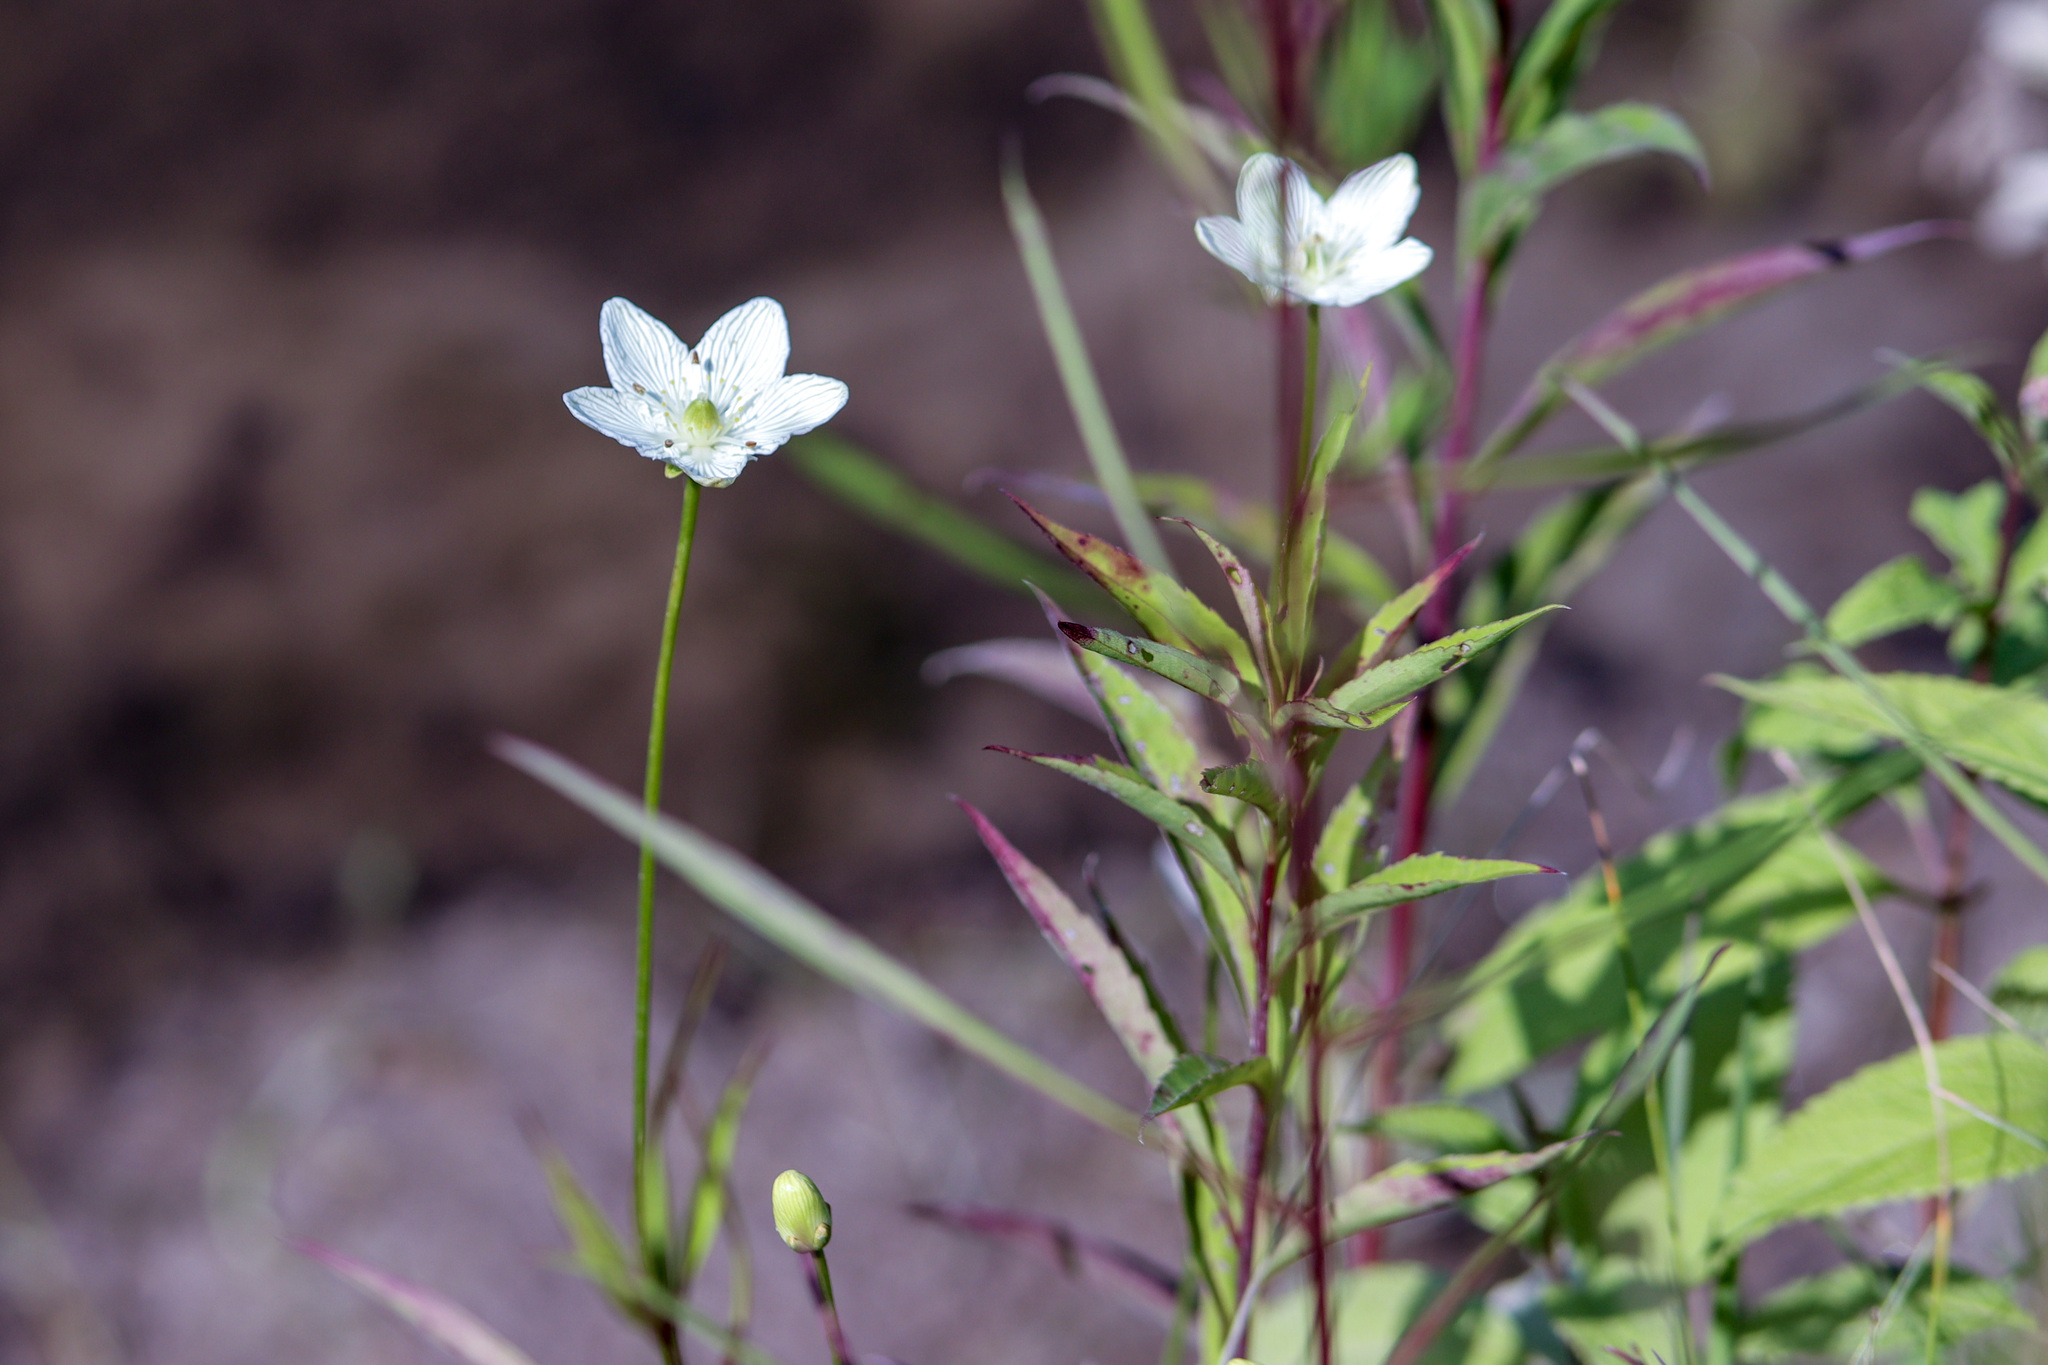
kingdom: Plantae
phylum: Tracheophyta
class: Magnoliopsida
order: Celastrales
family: Parnassiaceae
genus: Parnassia
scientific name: Parnassia glauca
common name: American grass-of-parnassus
